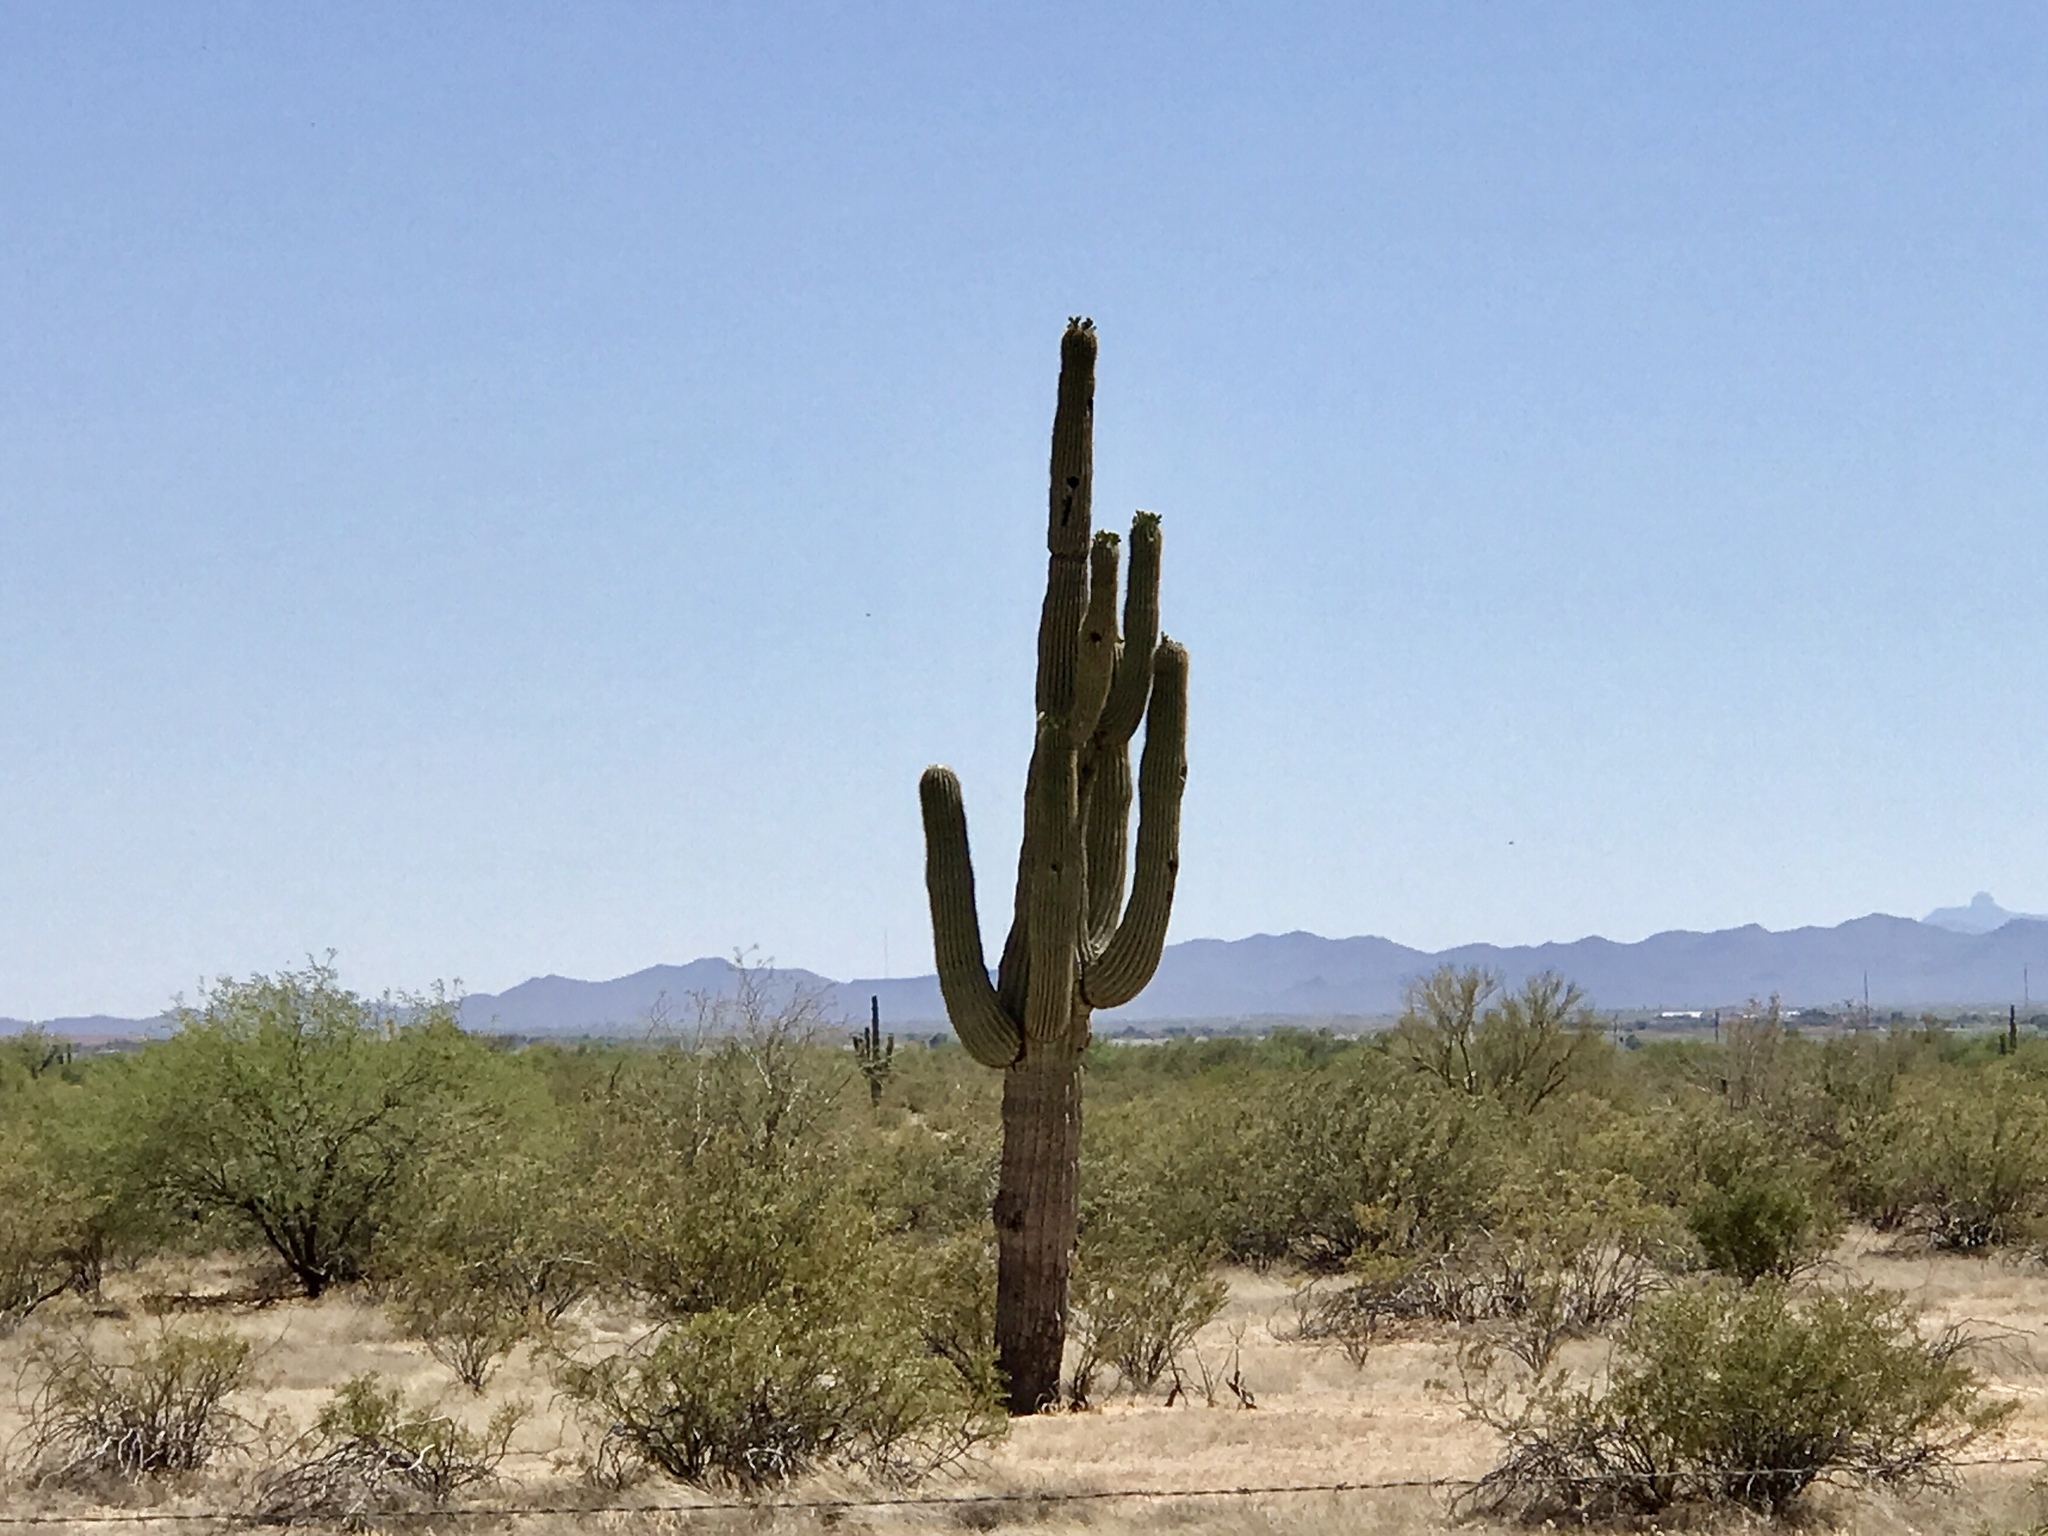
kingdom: Plantae
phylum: Tracheophyta
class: Magnoliopsida
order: Caryophyllales
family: Cactaceae
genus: Carnegiea
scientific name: Carnegiea gigantea
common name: Saguaro
